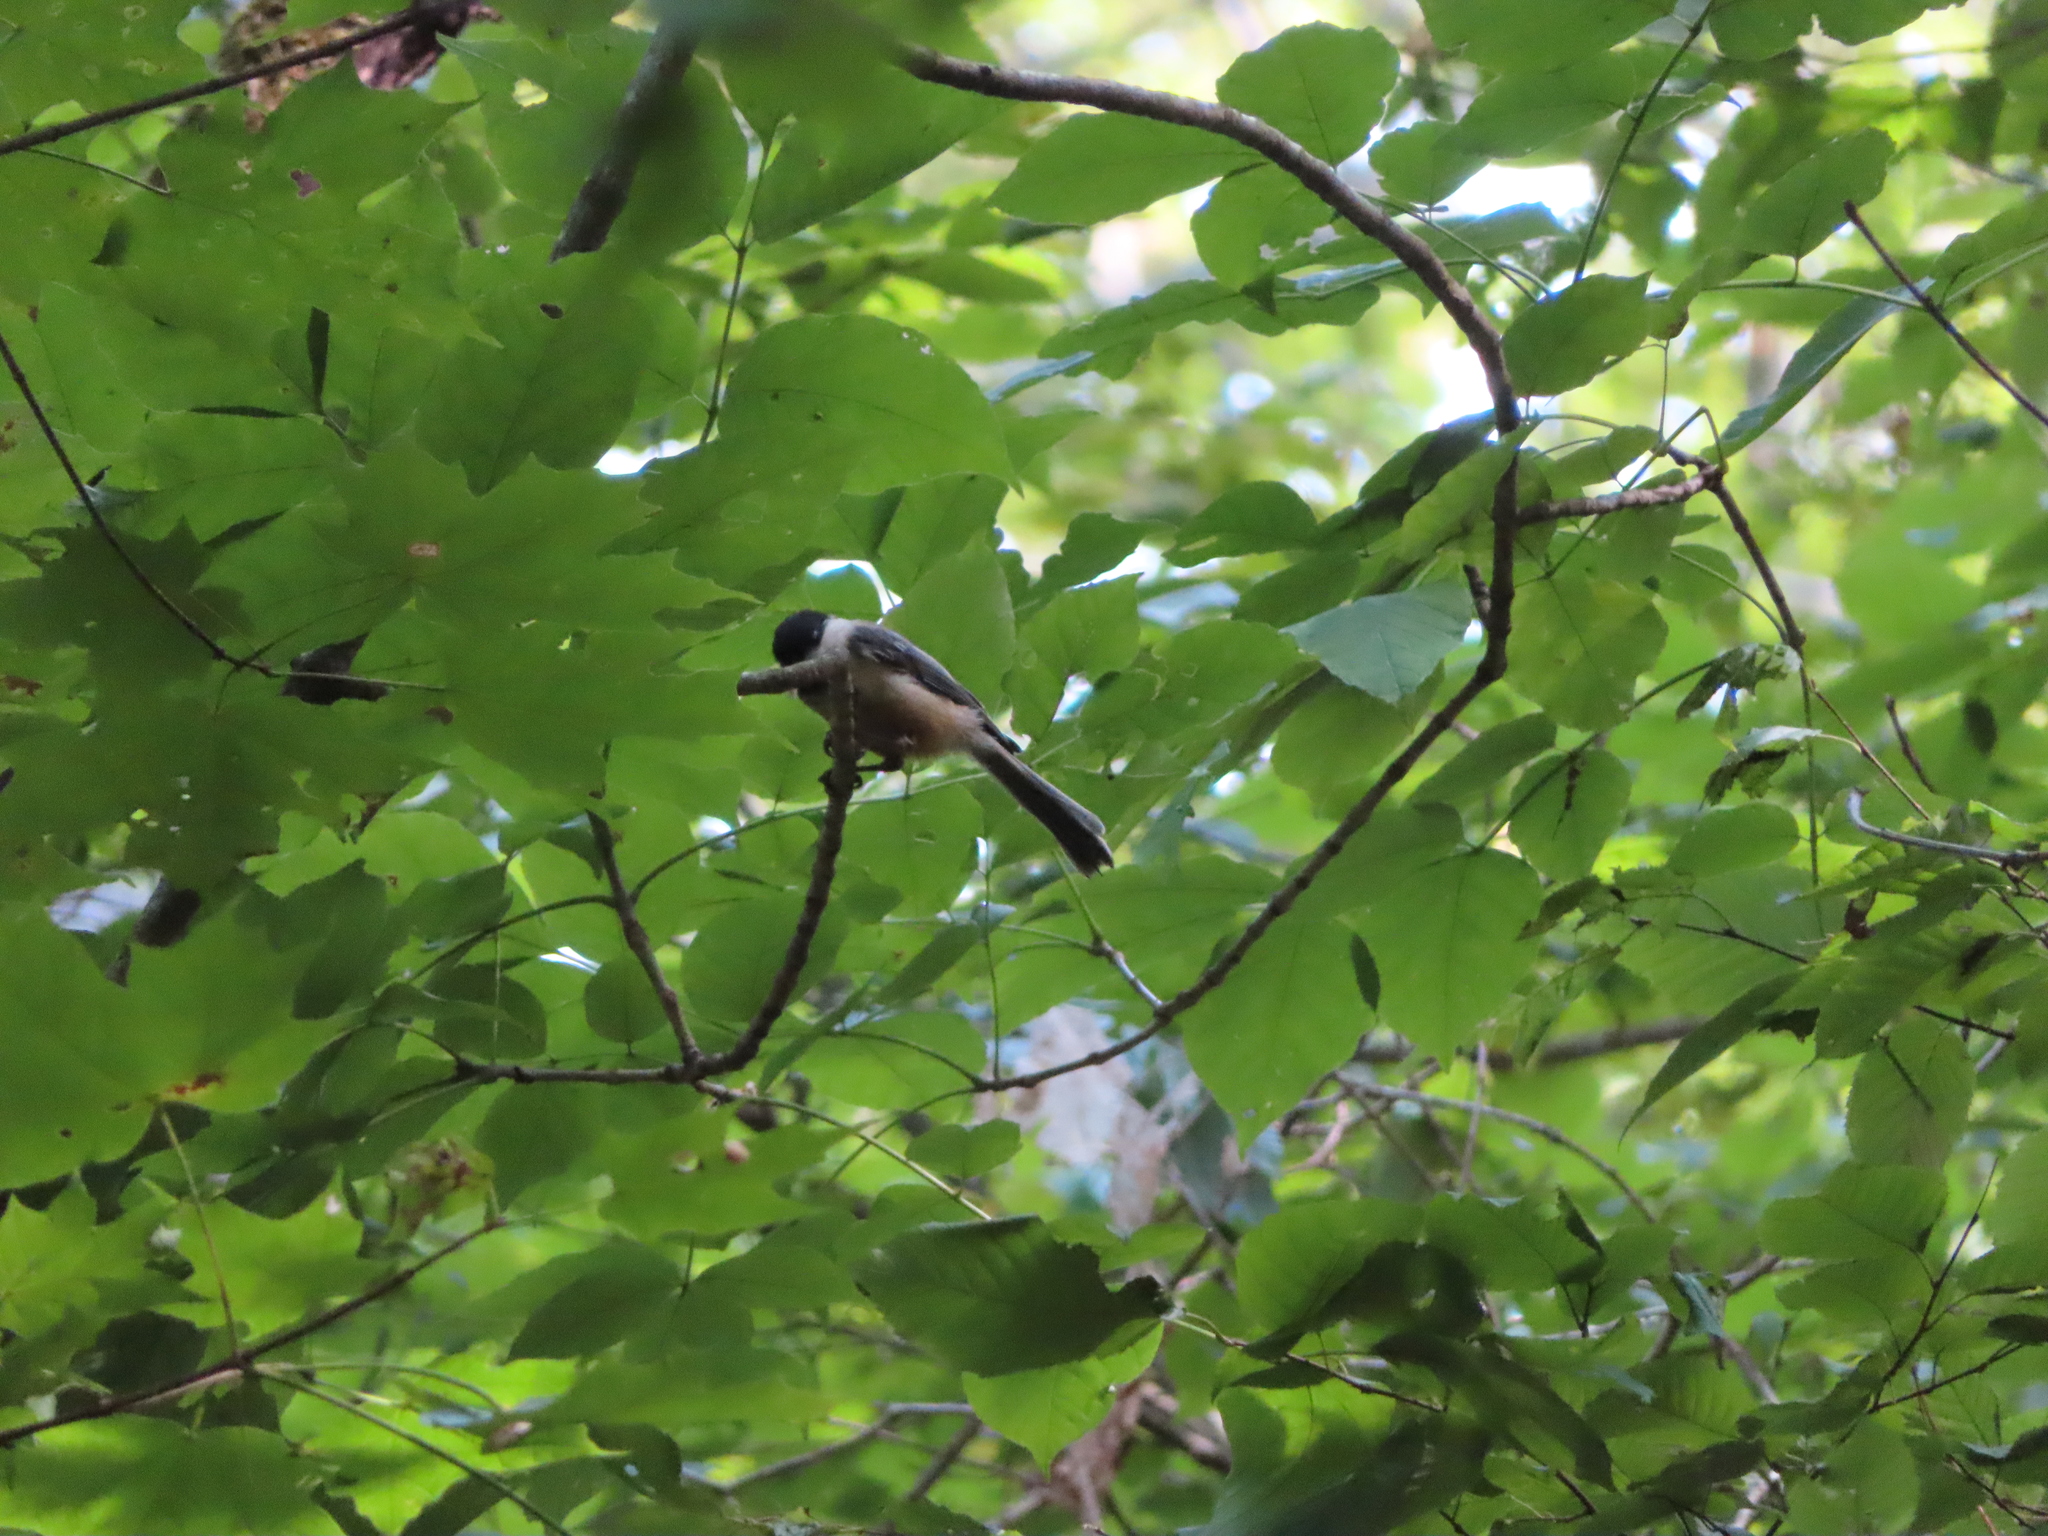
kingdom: Plantae
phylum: Tracheophyta
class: Magnoliopsida
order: Sapindales
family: Sapindaceae
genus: Acer
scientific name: Acer saccharum
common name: Sugar maple
